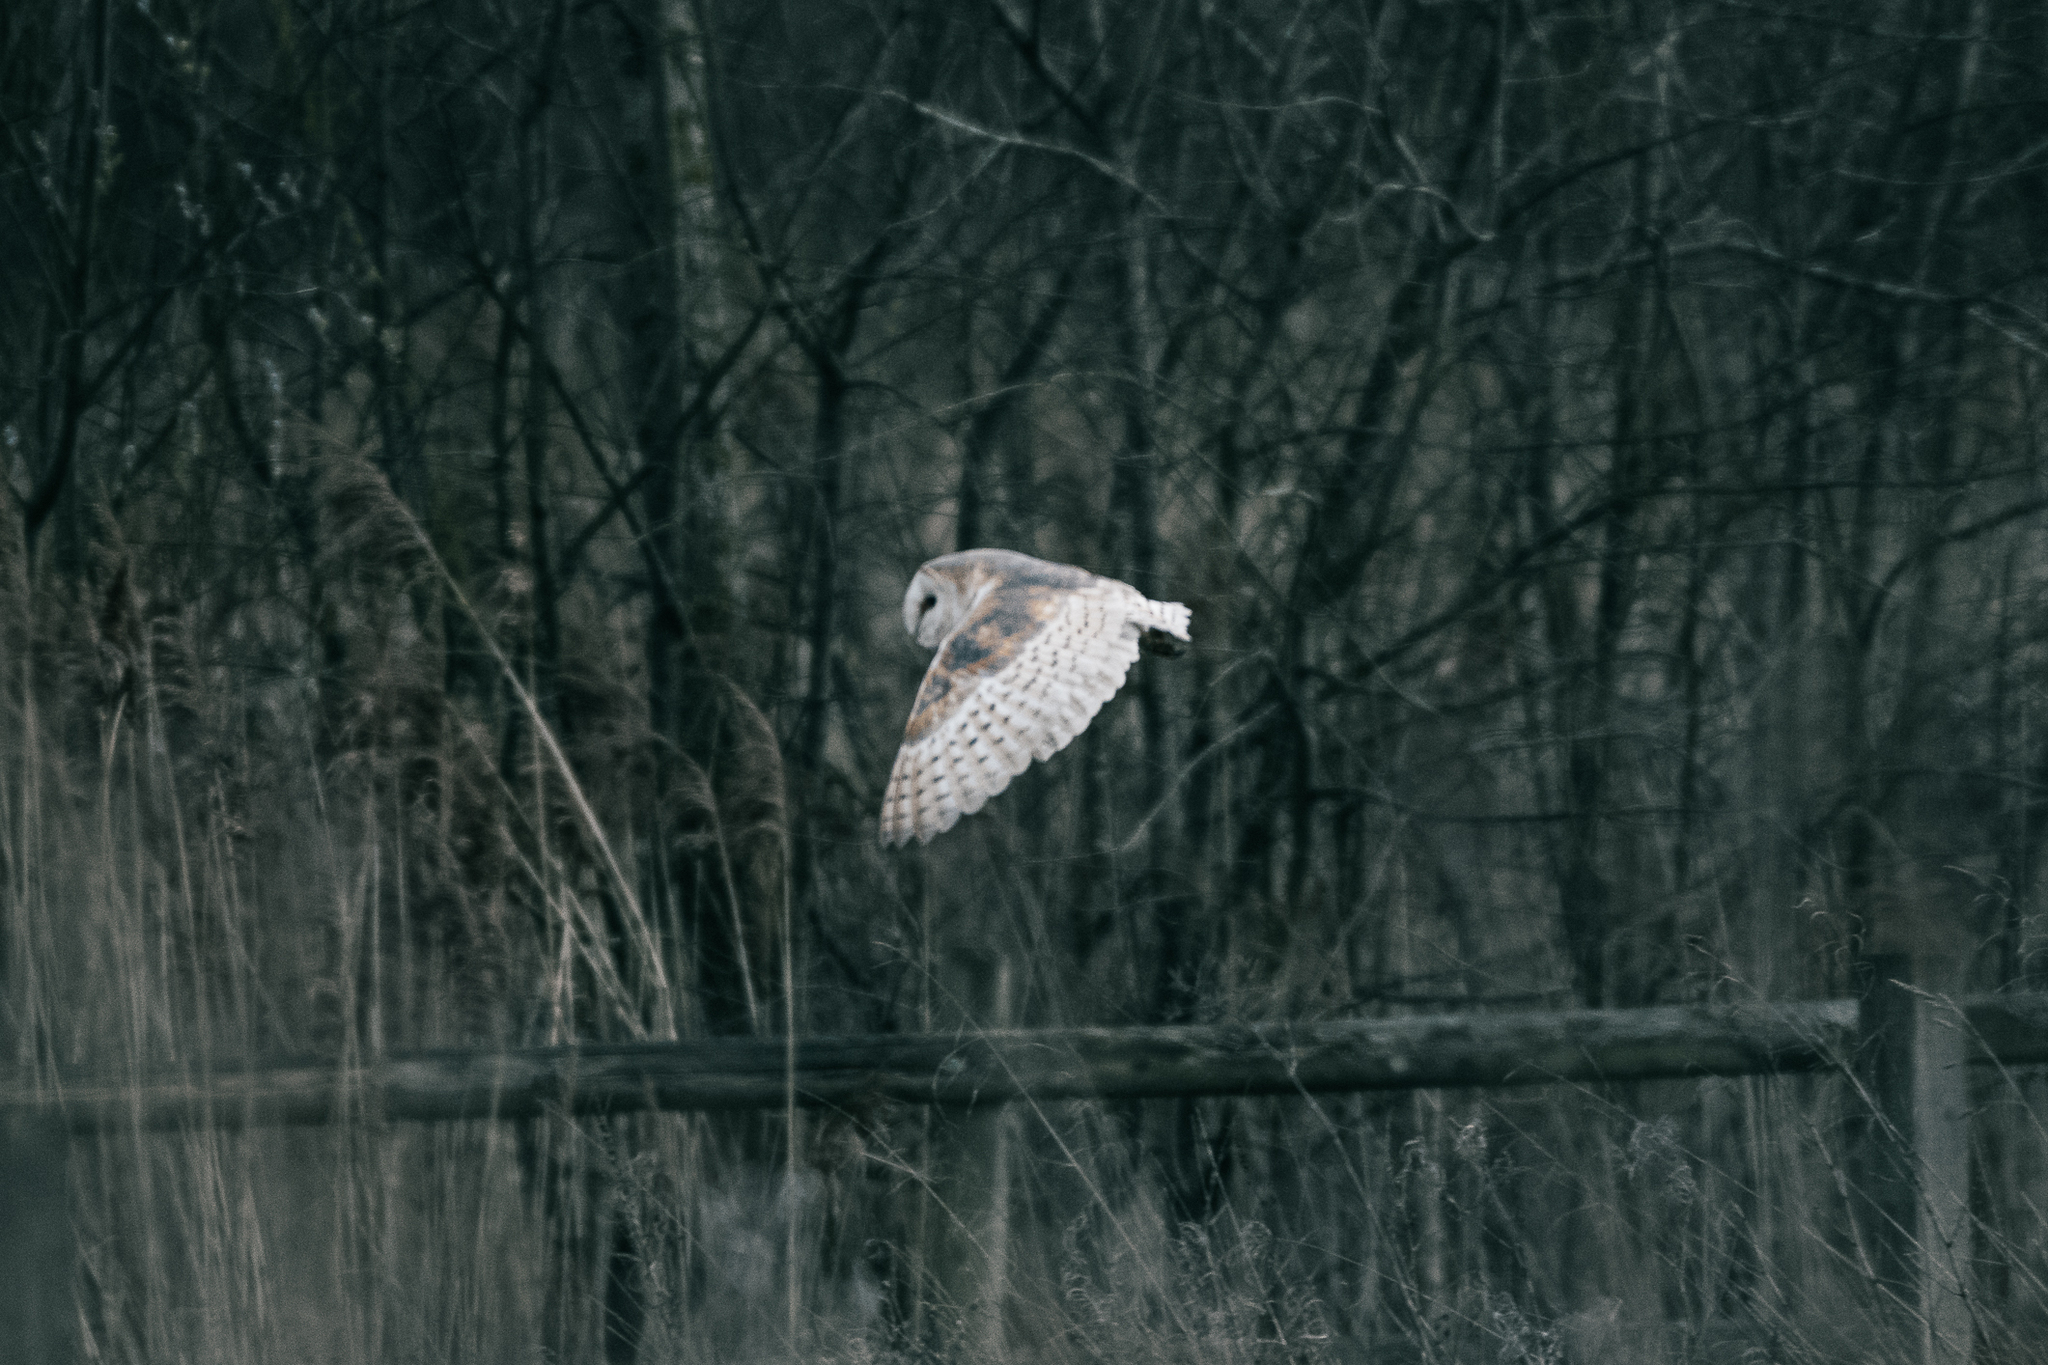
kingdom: Animalia
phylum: Chordata
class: Aves
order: Strigiformes
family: Tytonidae
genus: Tyto
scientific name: Tyto alba
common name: Barn owl
